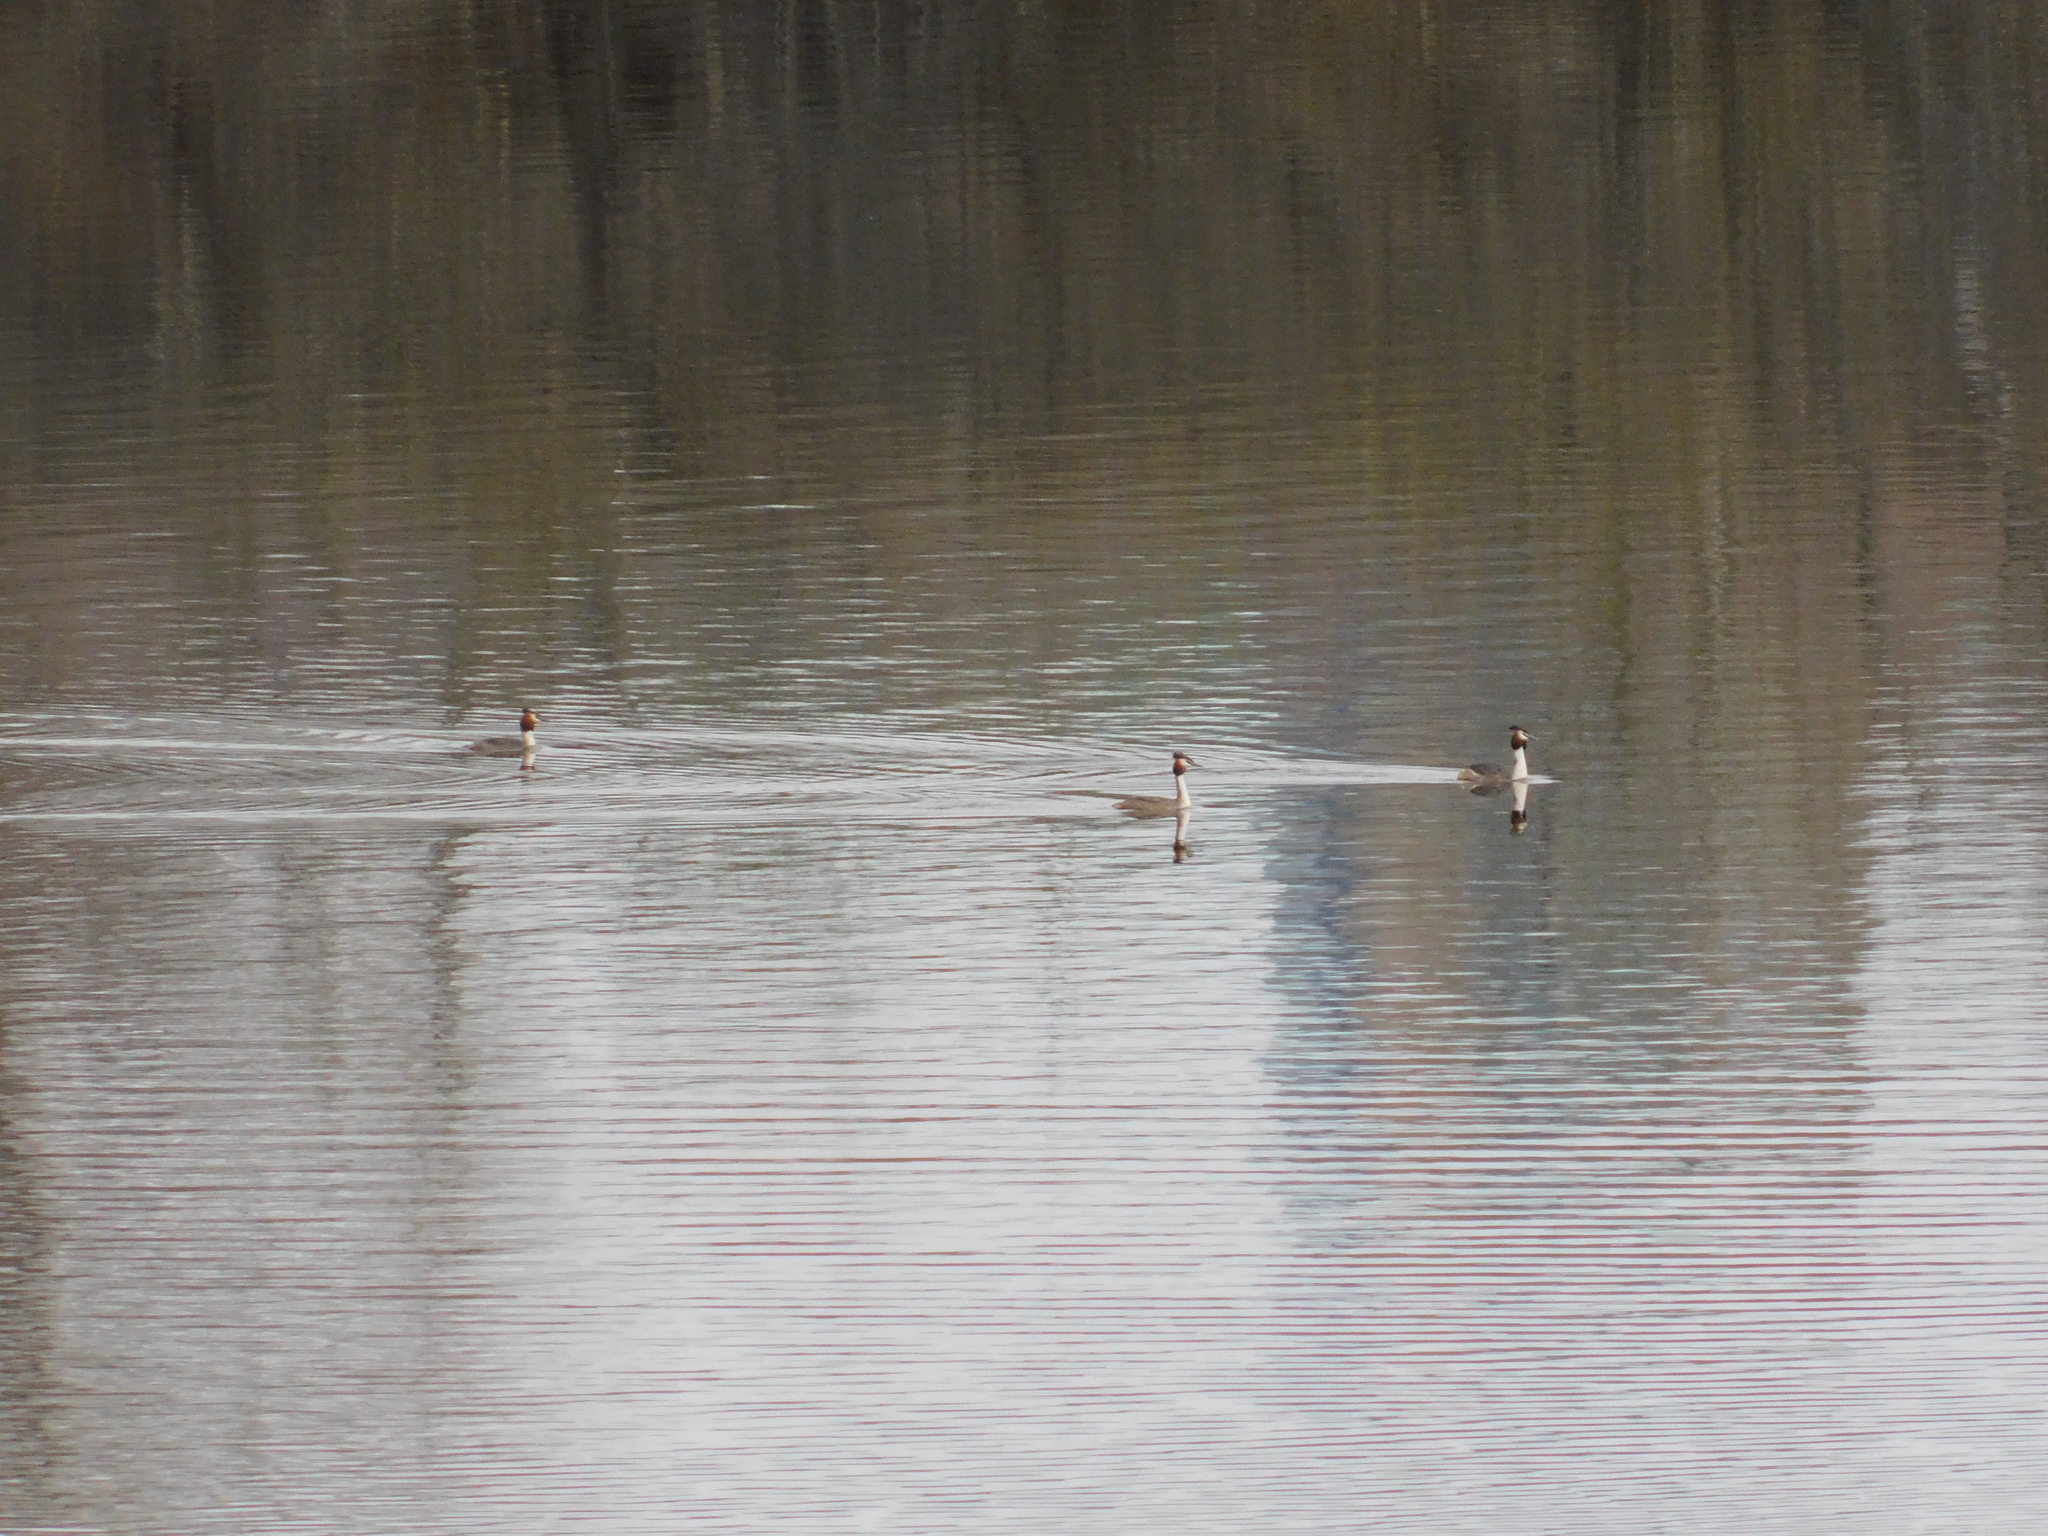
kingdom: Animalia
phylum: Chordata
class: Aves
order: Podicipediformes
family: Podicipedidae
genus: Podiceps
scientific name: Podiceps cristatus
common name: Great crested grebe
